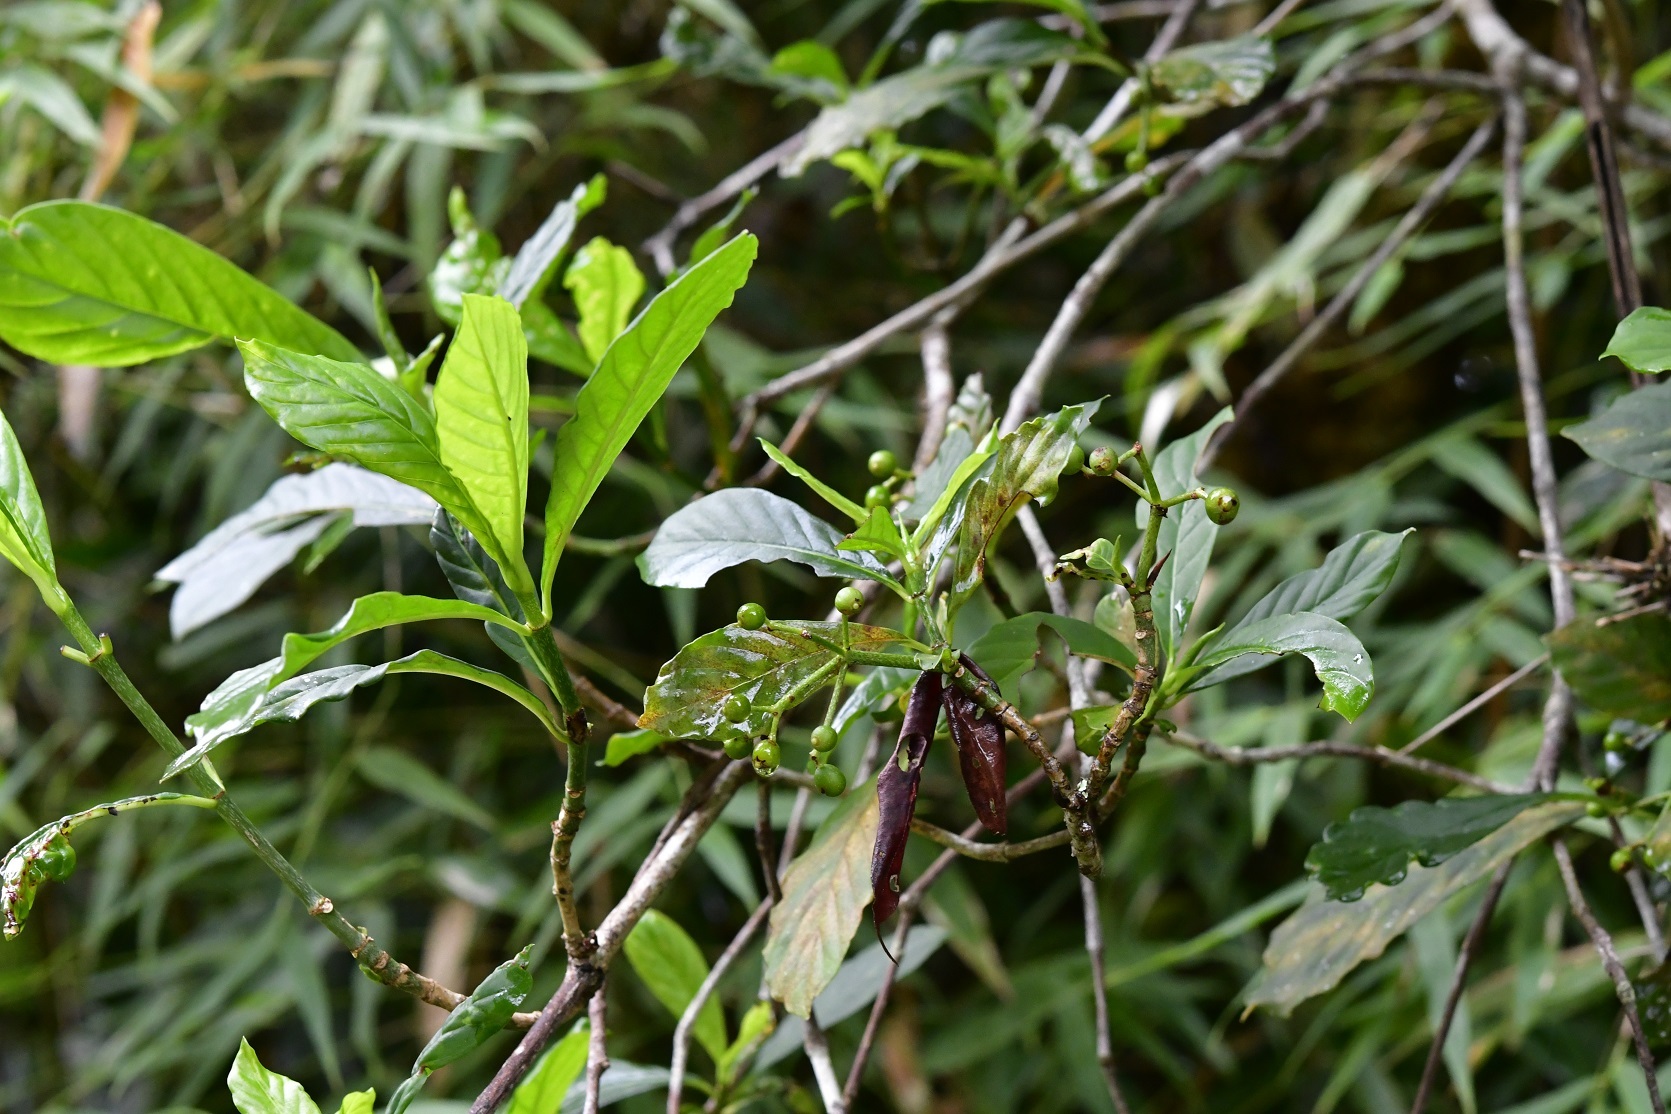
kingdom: Plantae
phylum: Tracheophyta
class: Magnoliopsida
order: Gentianales
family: Rubiaceae
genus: Psychotria
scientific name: Psychotria costivenia
